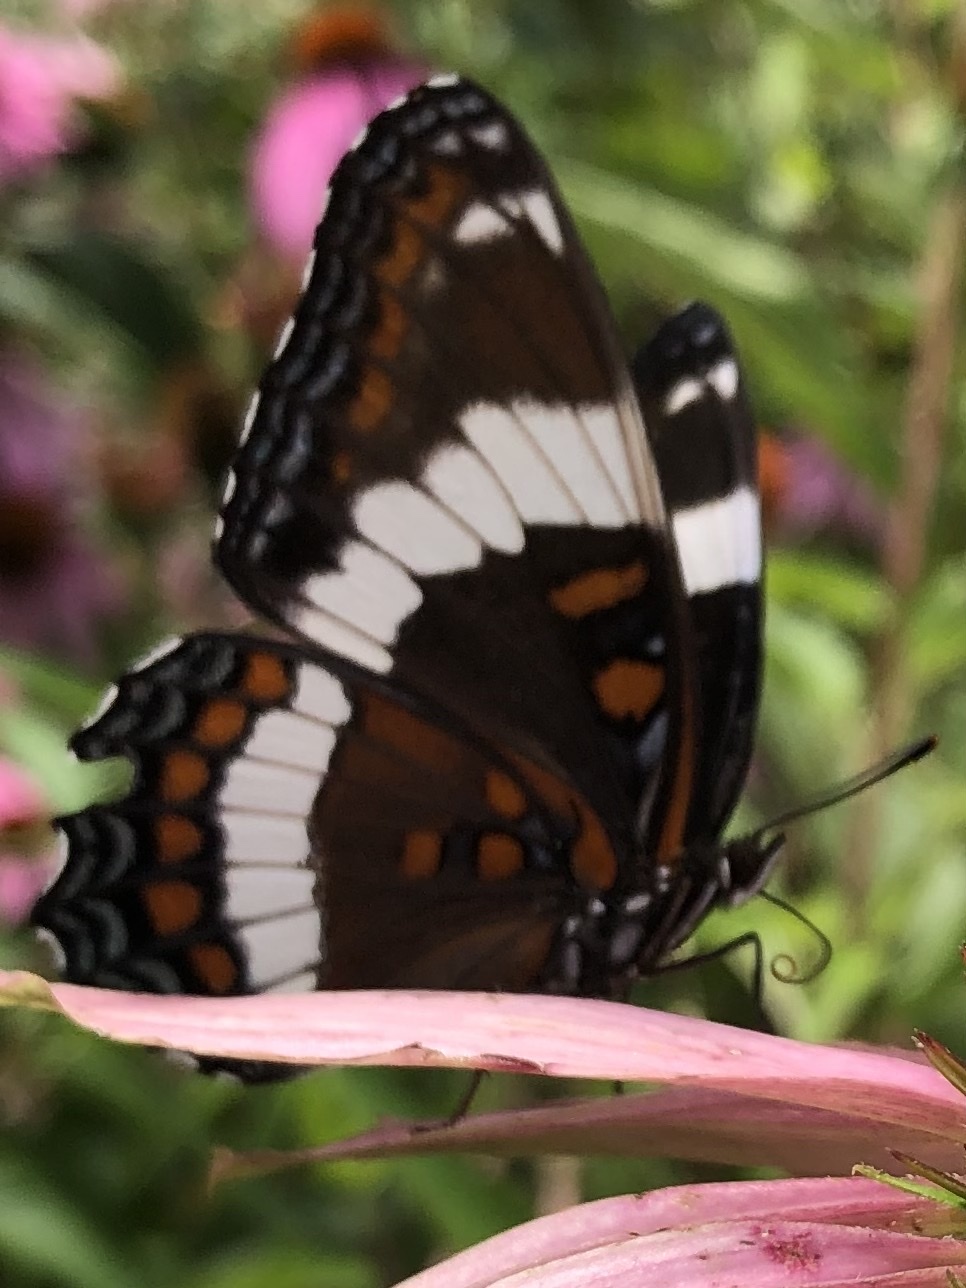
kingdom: Animalia
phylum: Arthropoda
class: Insecta
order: Lepidoptera
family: Nymphalidae
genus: Limenitis
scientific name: Limenitis arthemis
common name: Red-spotted admiral
